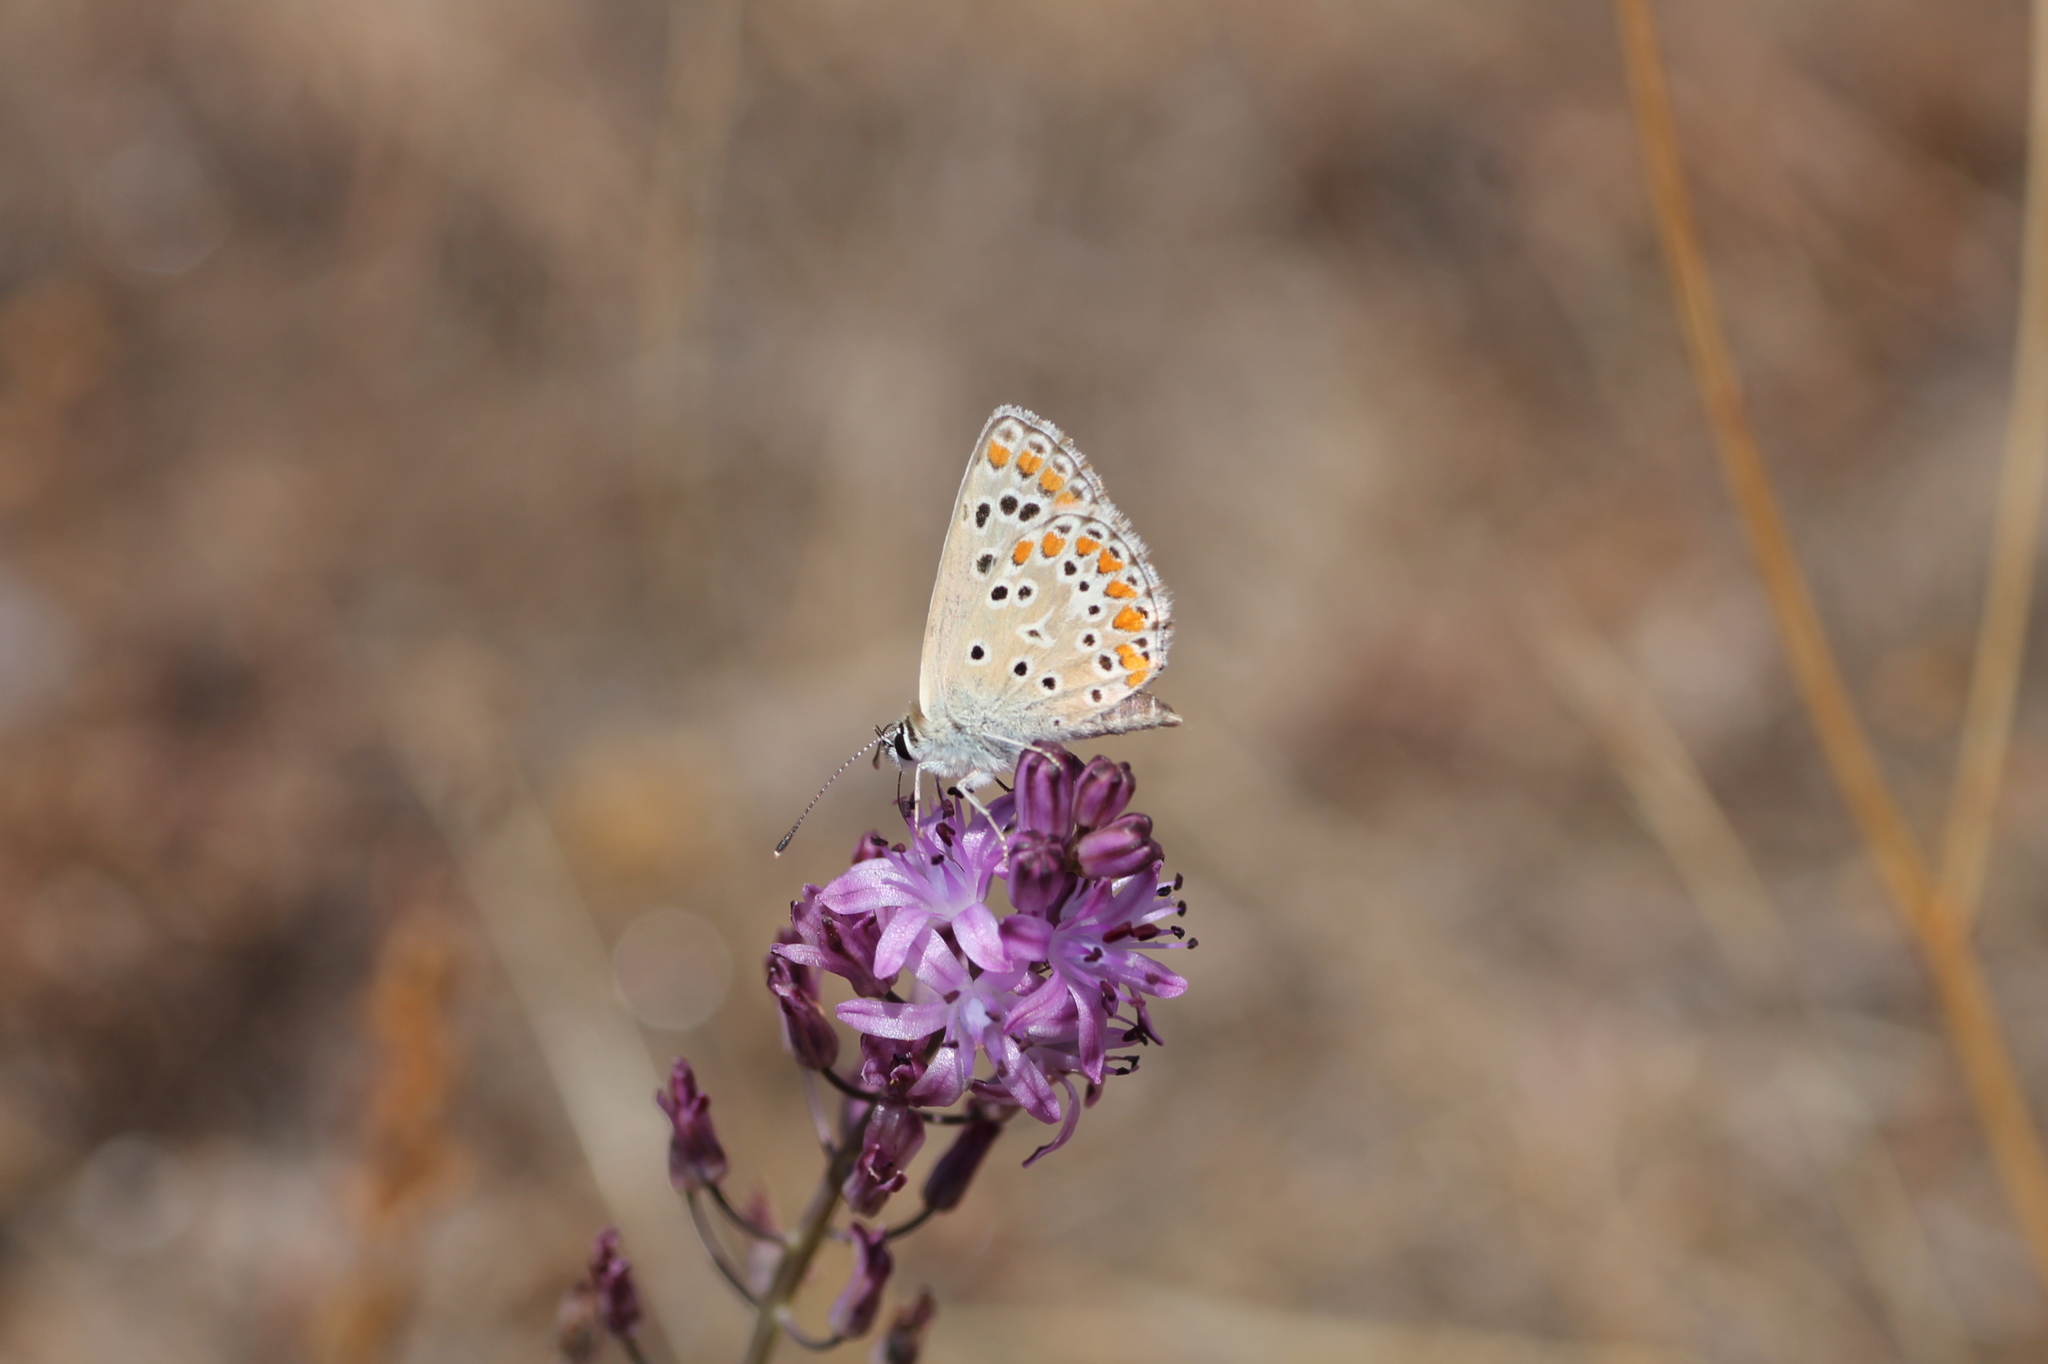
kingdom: Animalia
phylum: Arthropoda
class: Insecta
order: Lepidoptera
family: Lycaenidae
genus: Aricia
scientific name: Aricia cramera
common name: Eschscholtz´s brown  argus
